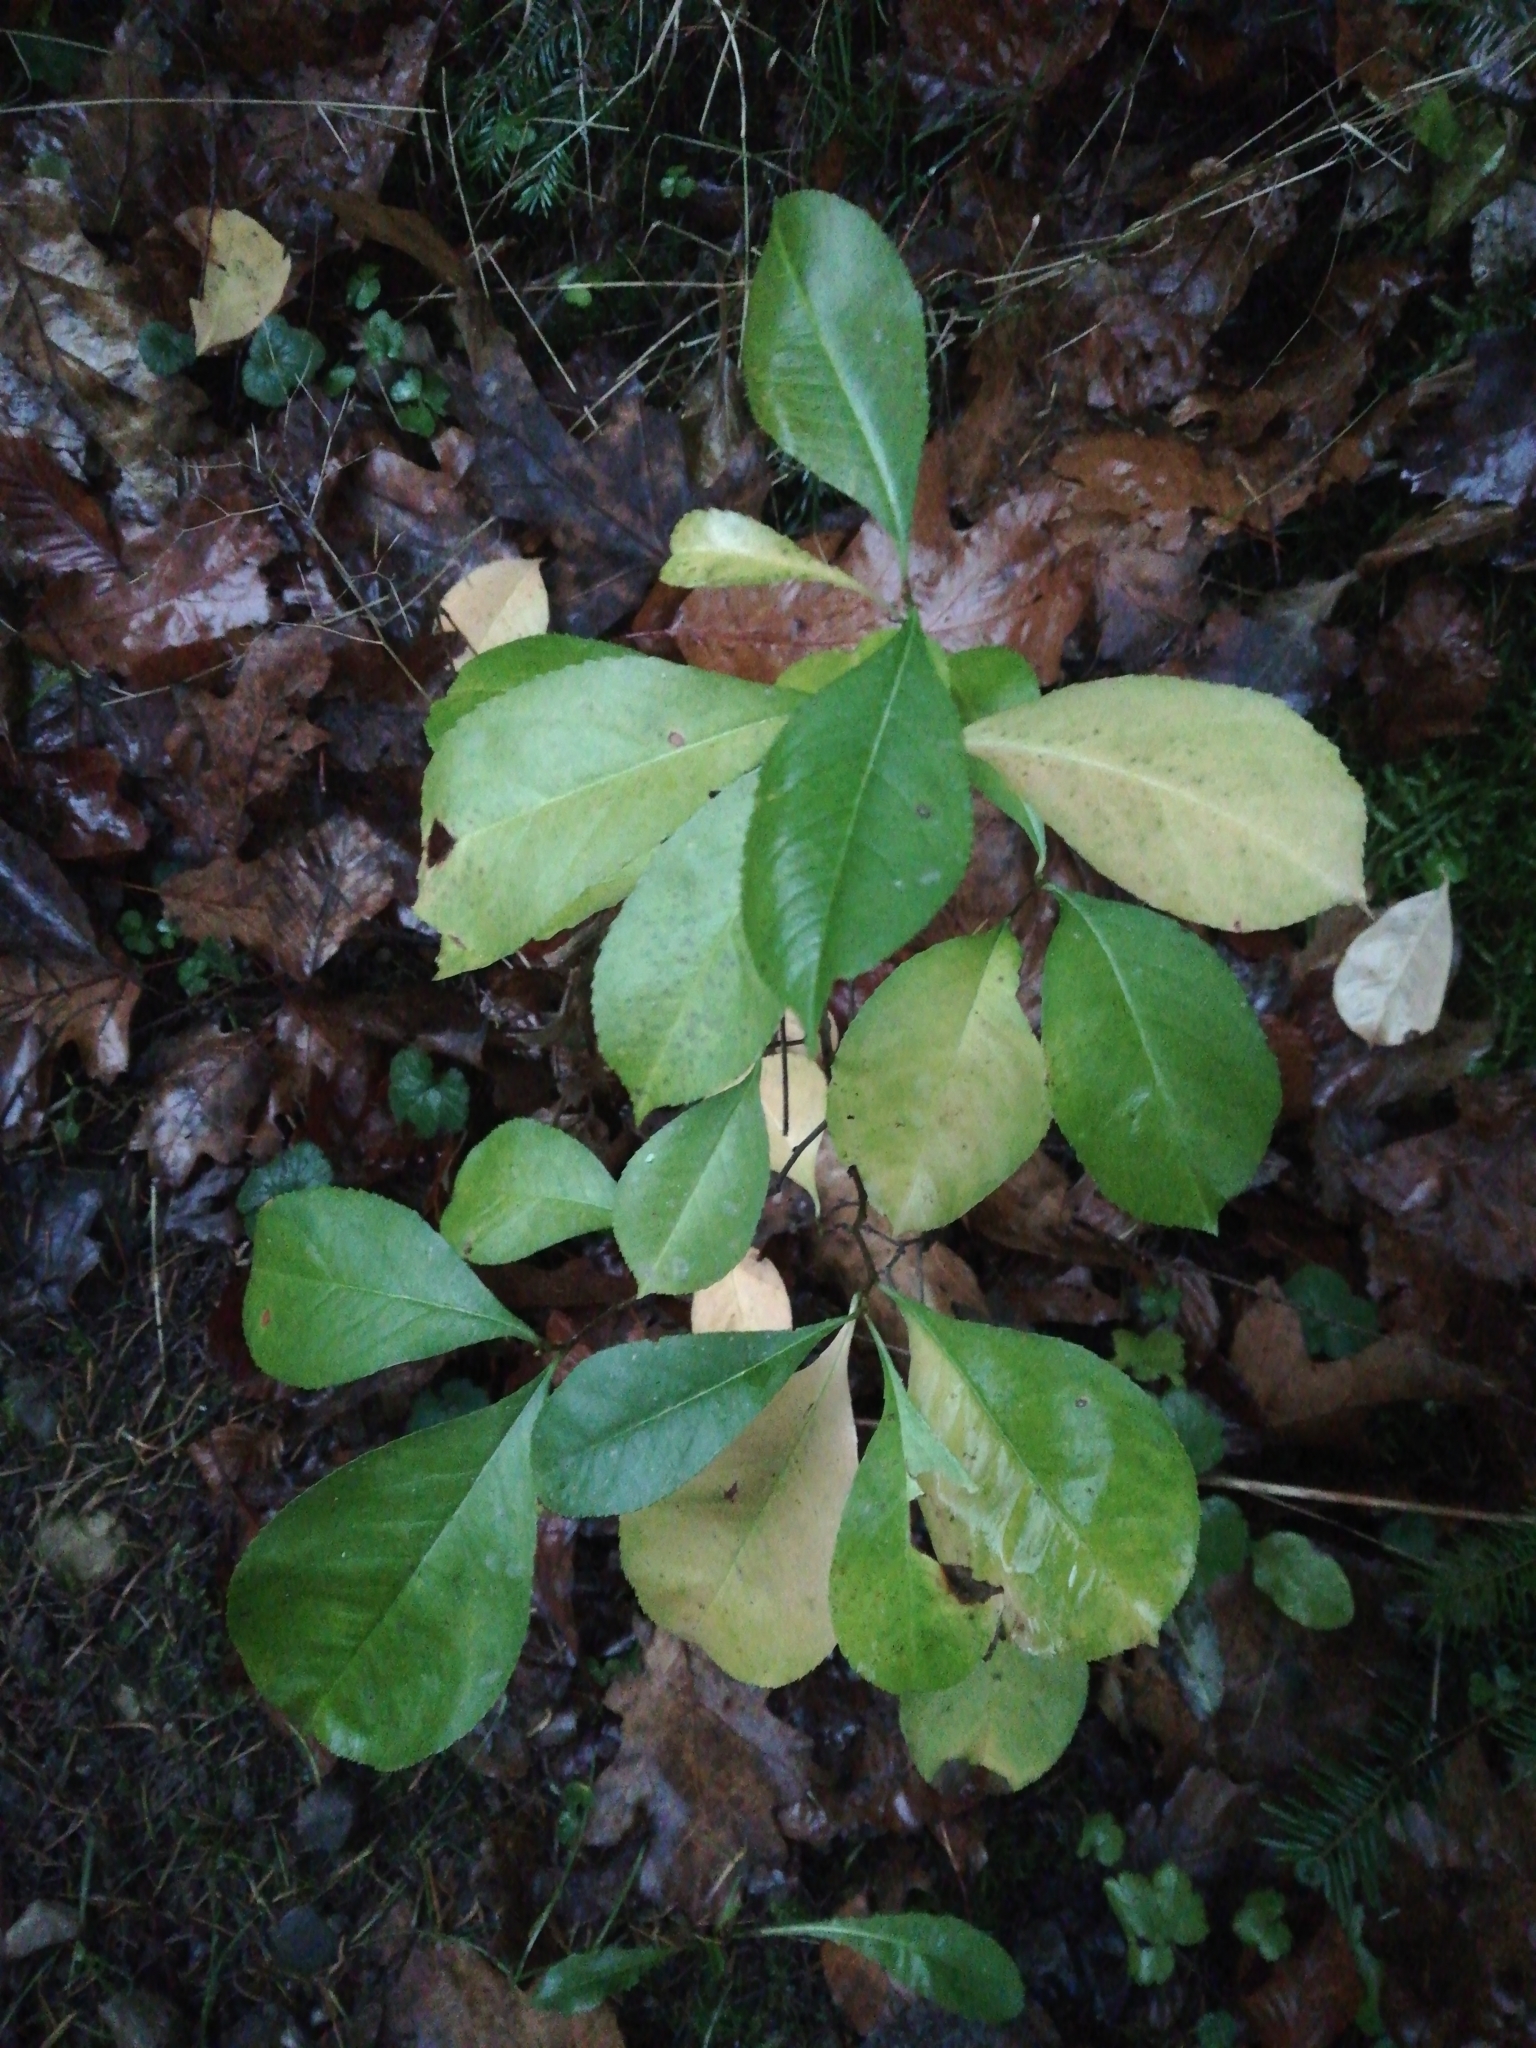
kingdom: Plantae
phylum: Tracheophyta
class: Magnoliopsida
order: Rosales
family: Rosaceae
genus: Prunus
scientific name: Prunus serotina
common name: Black cherry
